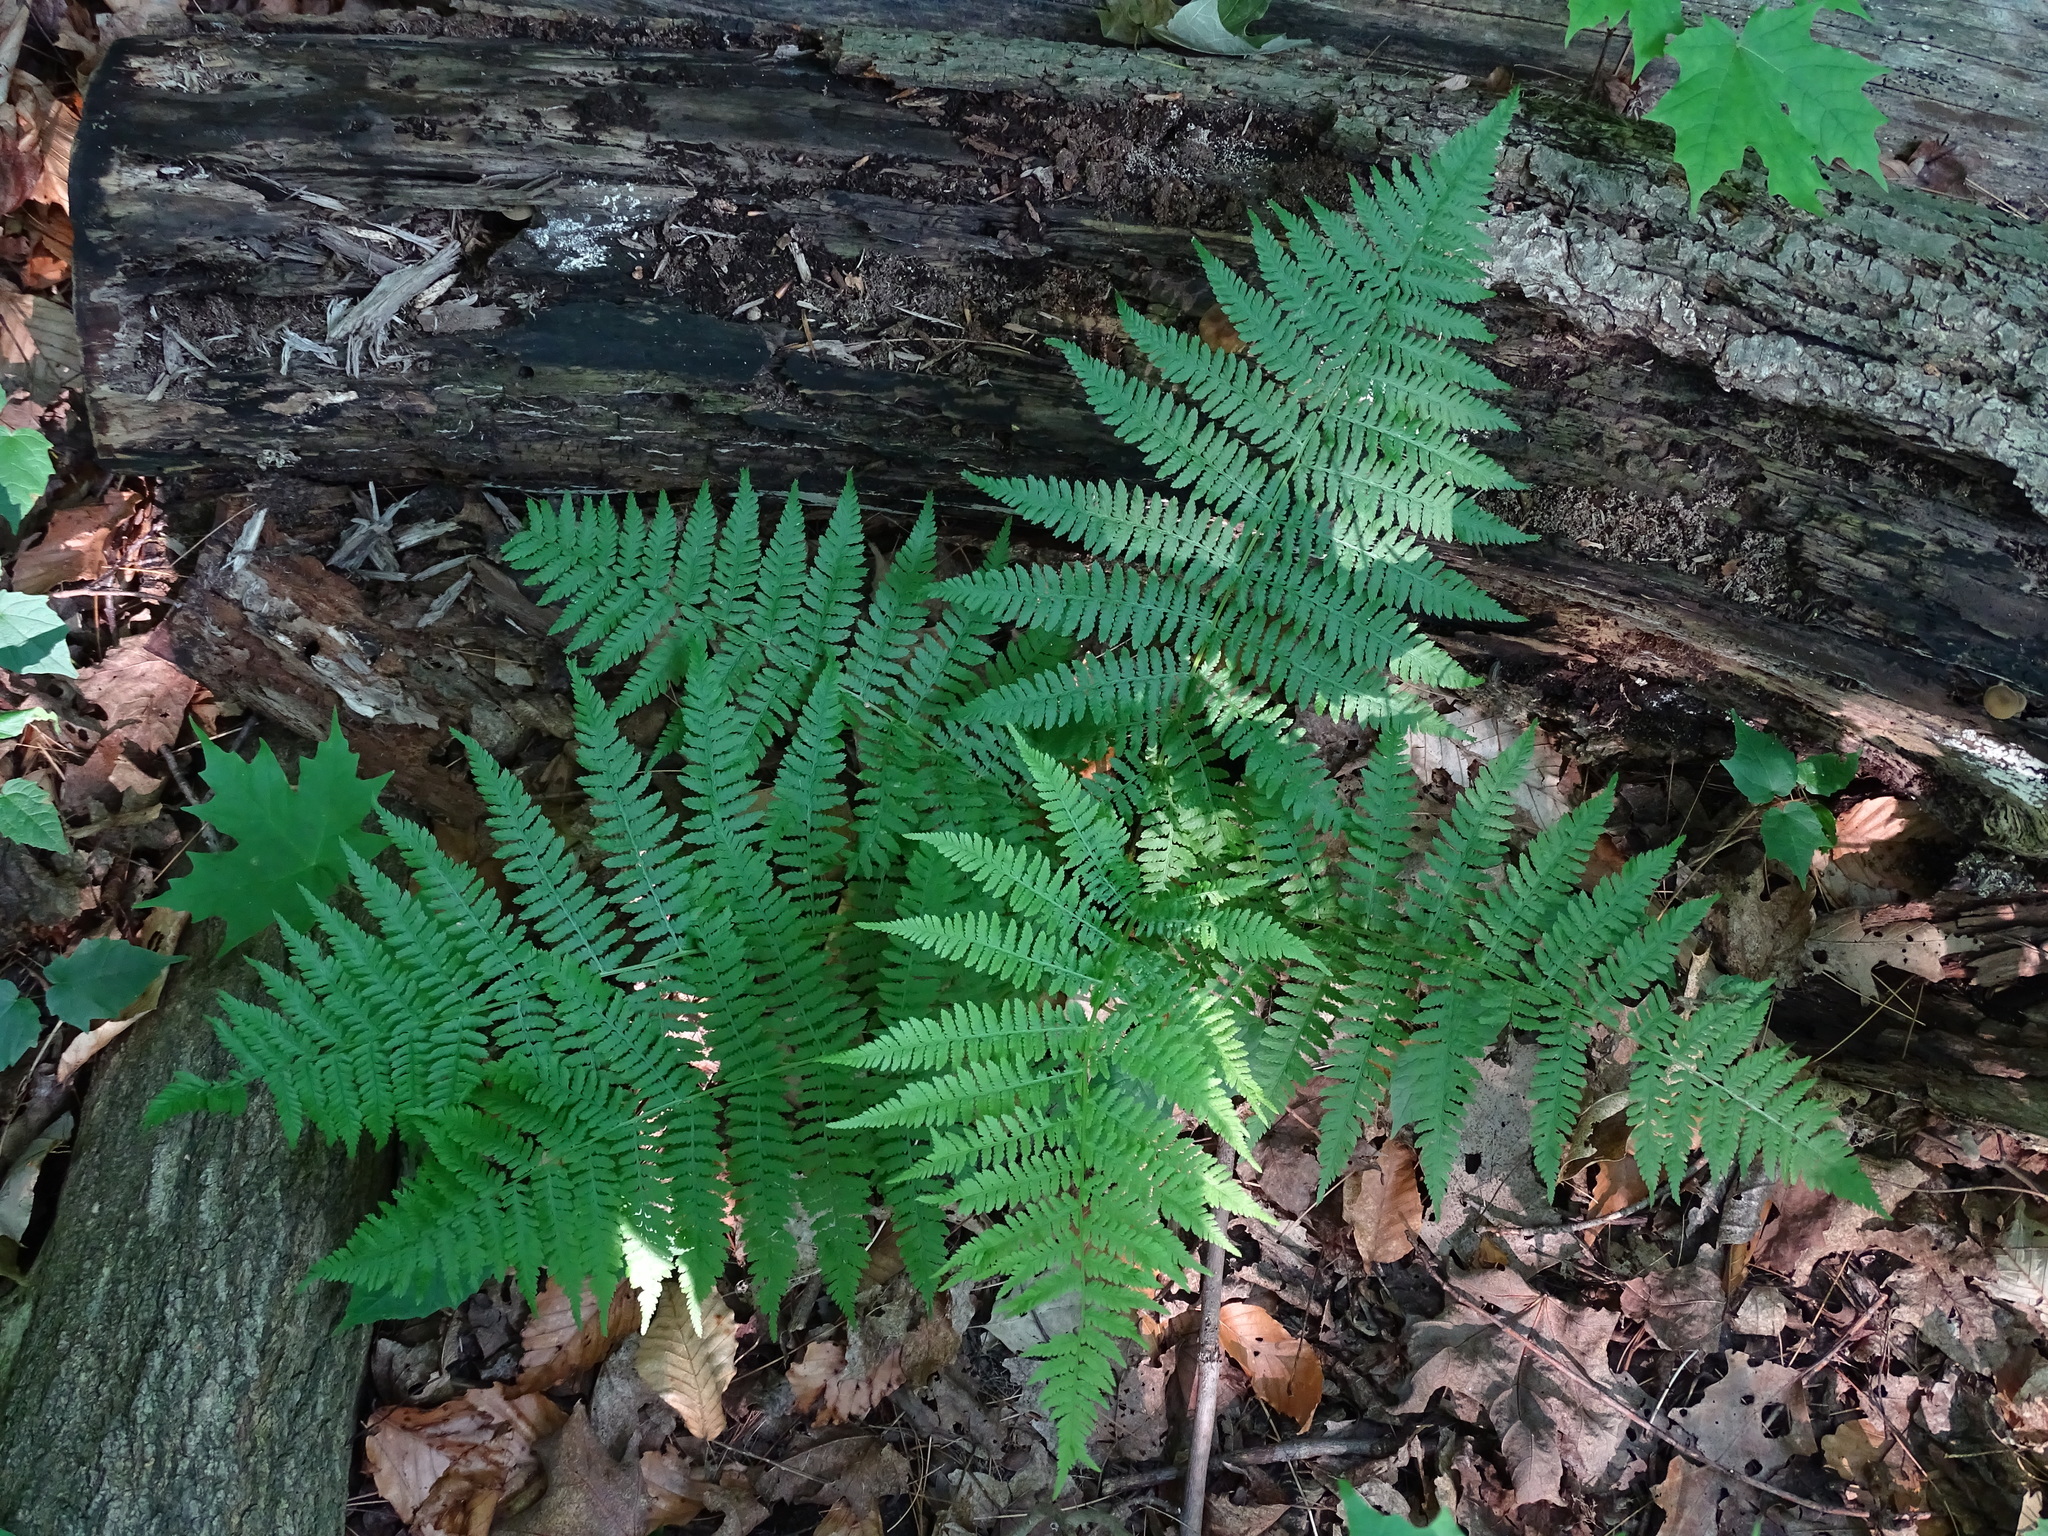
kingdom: Plantae
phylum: Tracheophyta
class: Polypodiopsida
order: Polypodiales
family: Athyriaceae
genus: Athyrium
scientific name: Athyrium angustum
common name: Northern lady fern
